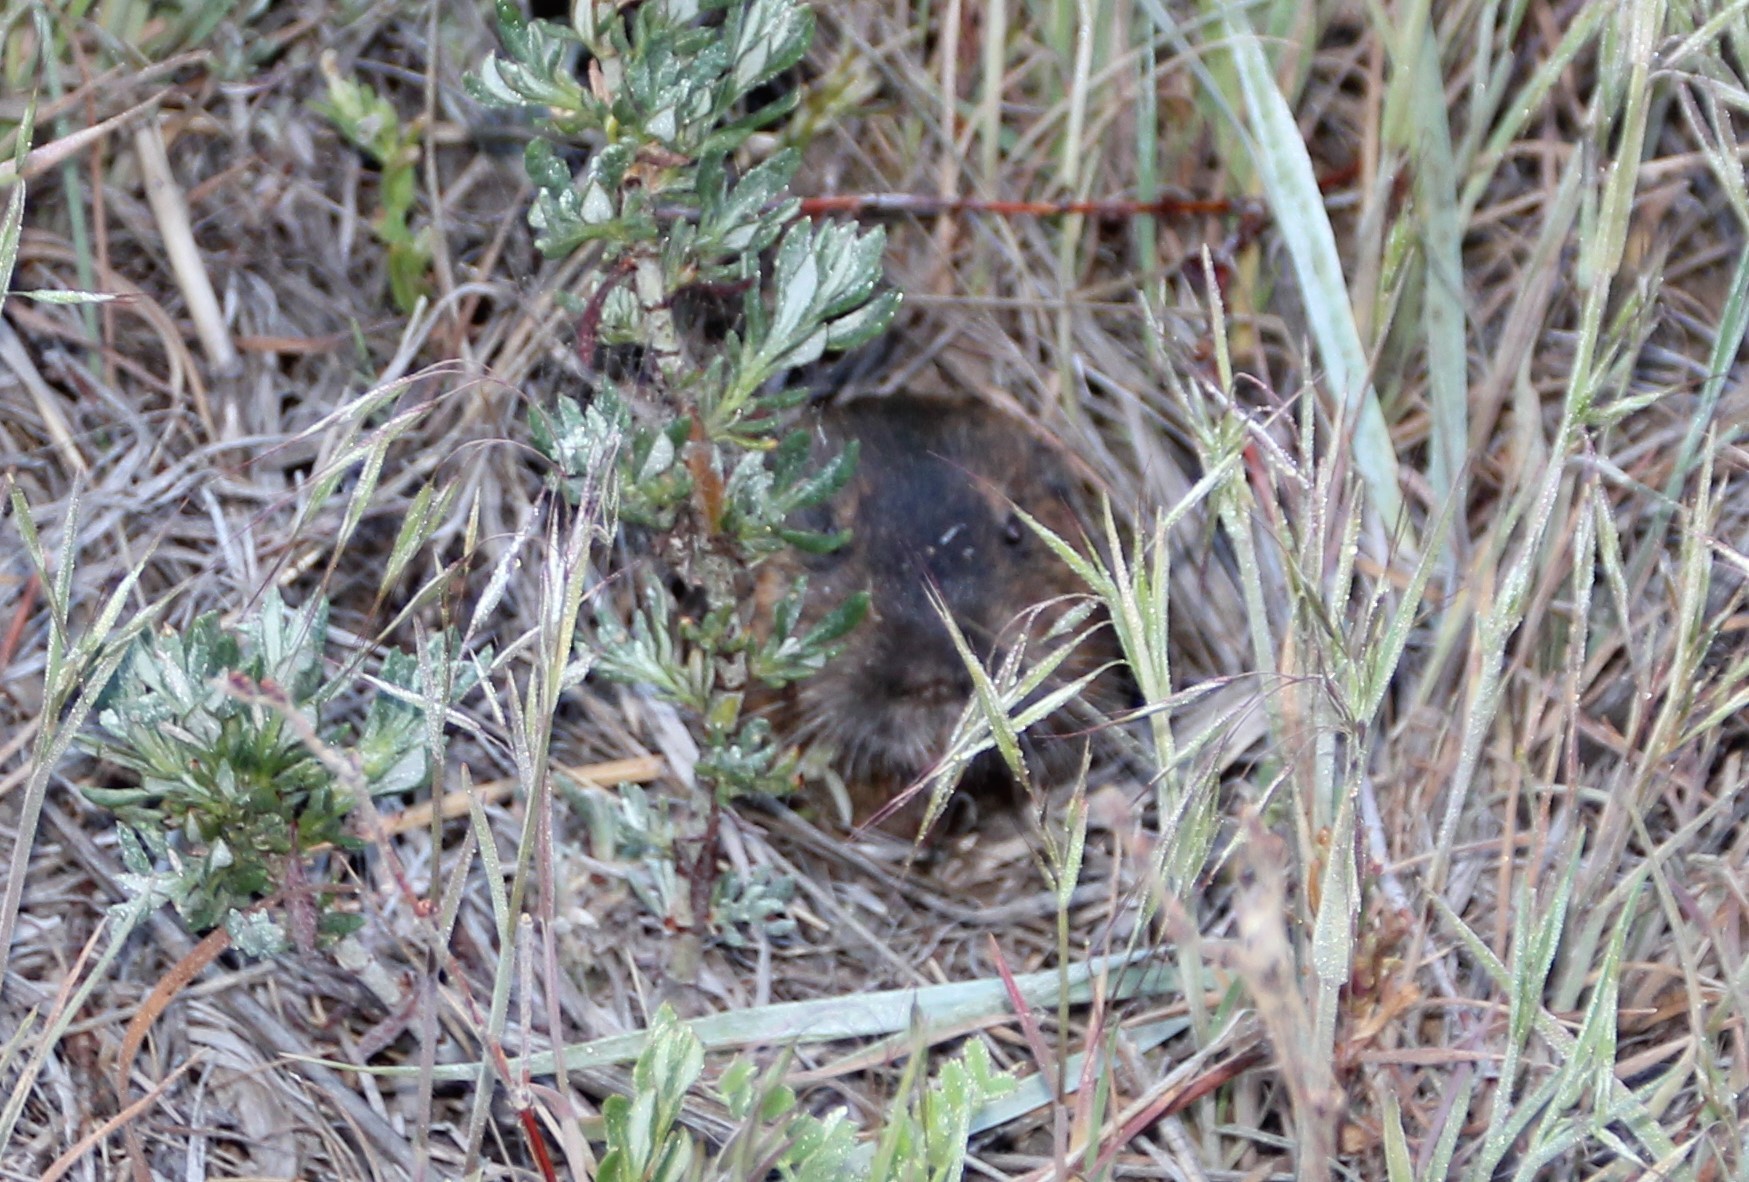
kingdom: Animalia
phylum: Chordata
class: Mammalia
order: Rodentia
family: Geomyidae
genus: Thomomys
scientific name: Thomomys bottae
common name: Botta's pocket gopher
